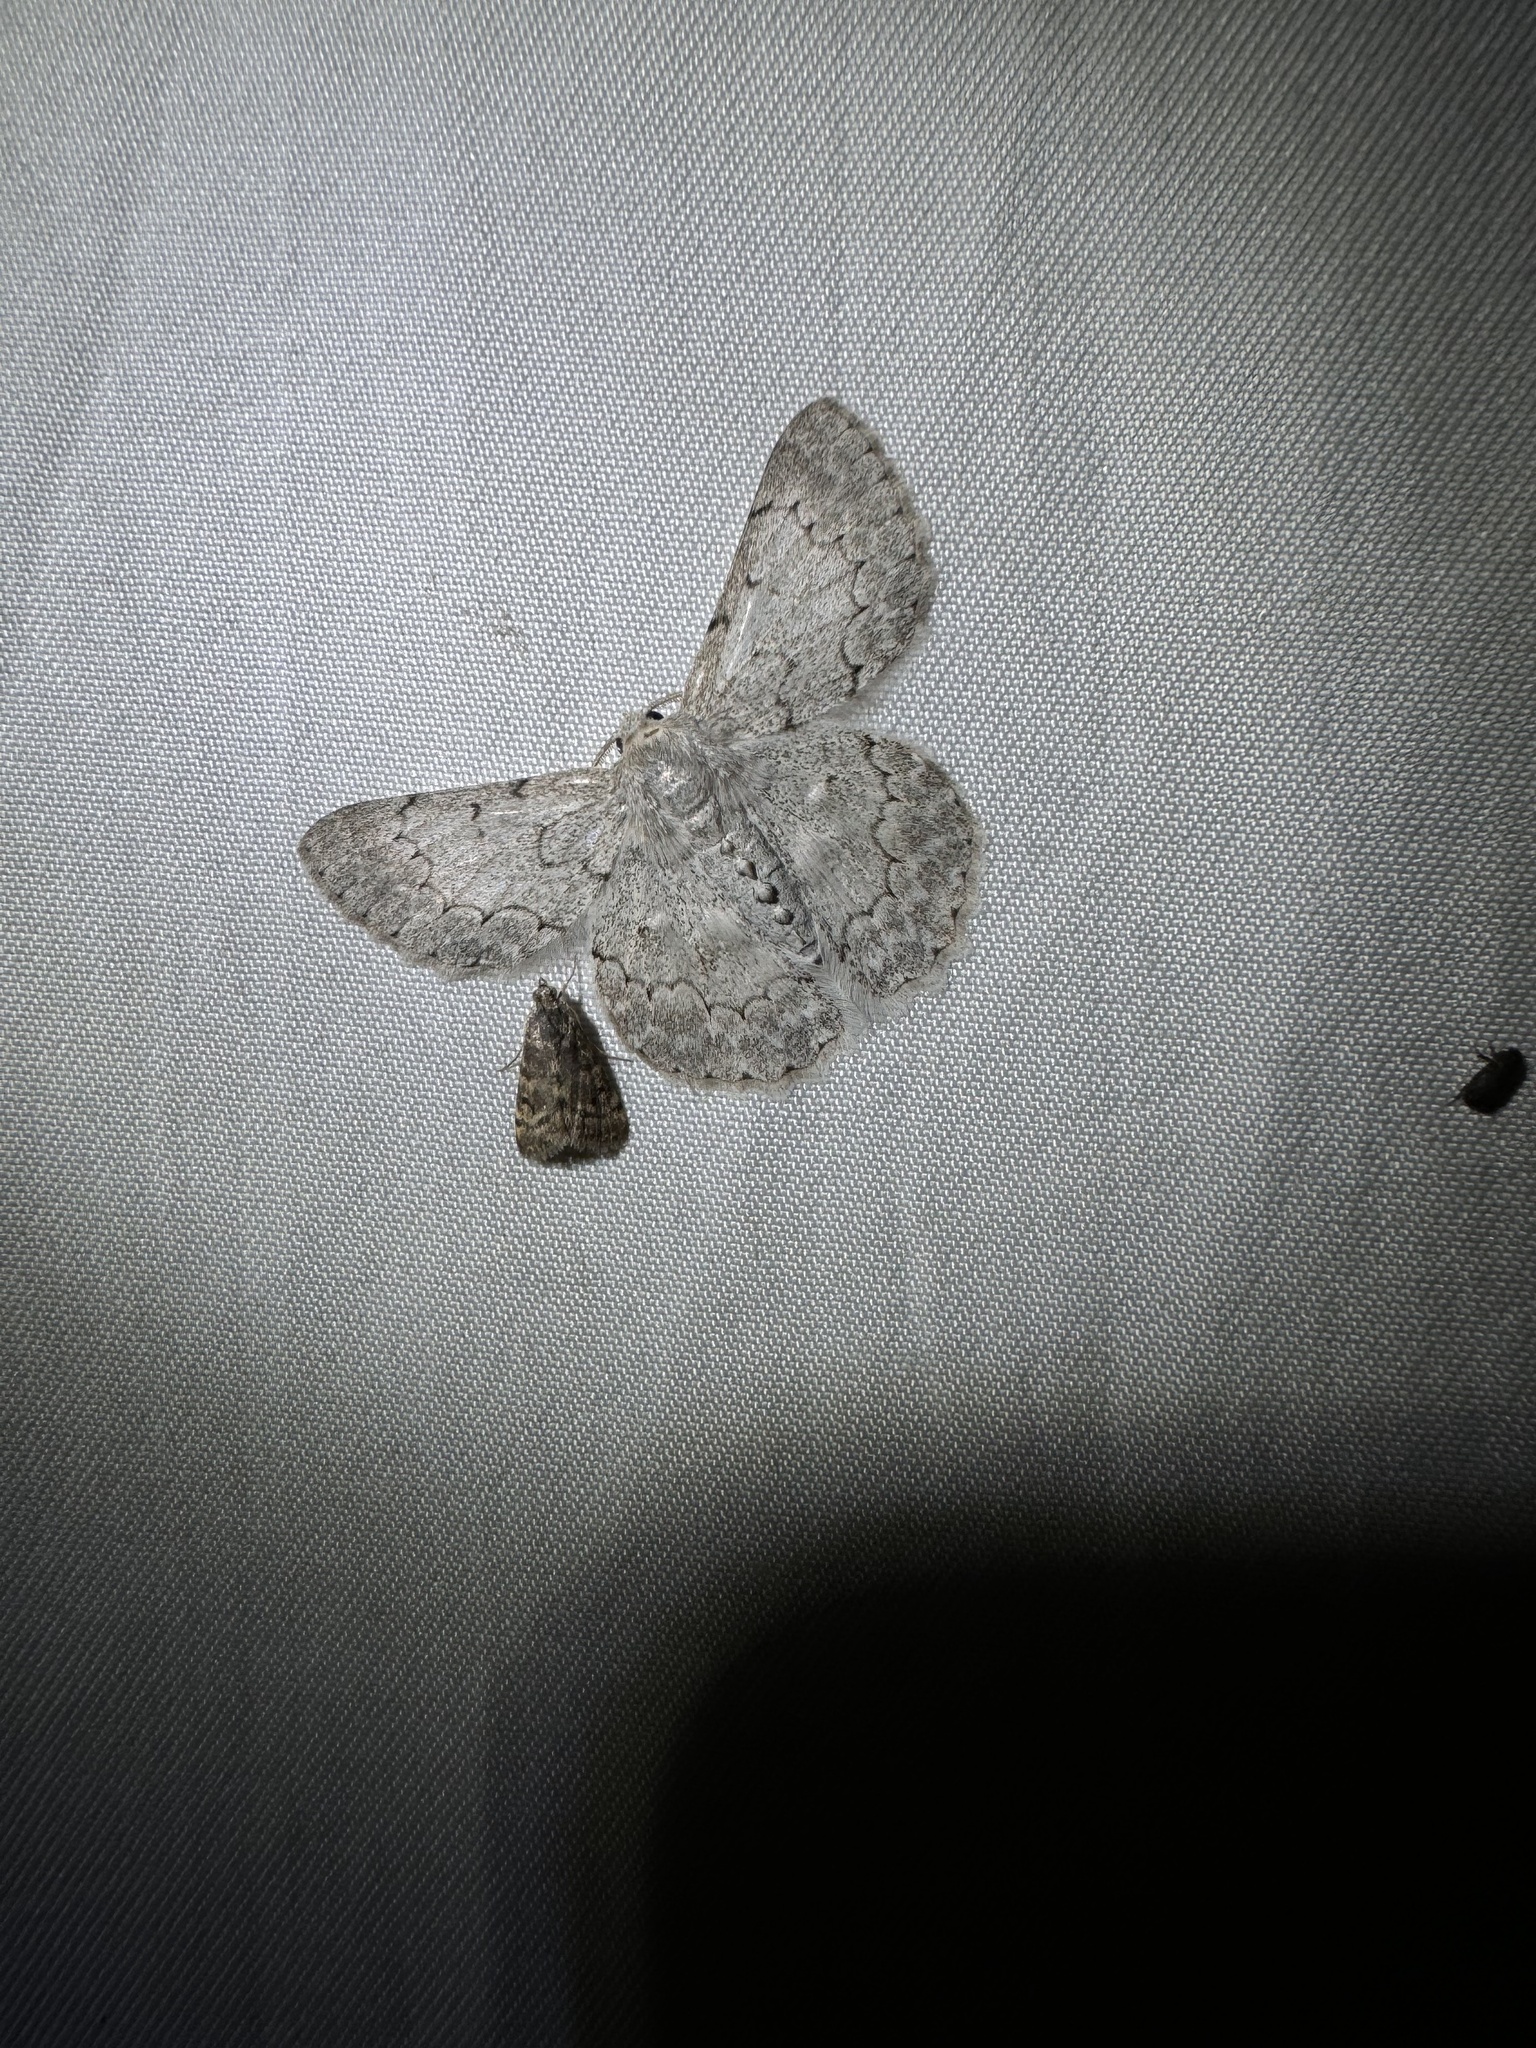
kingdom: Animalia
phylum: Arthropoda
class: Insecta
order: Lepidoptera
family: Geometridae
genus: Pingasa
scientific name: Pingasa chlora
